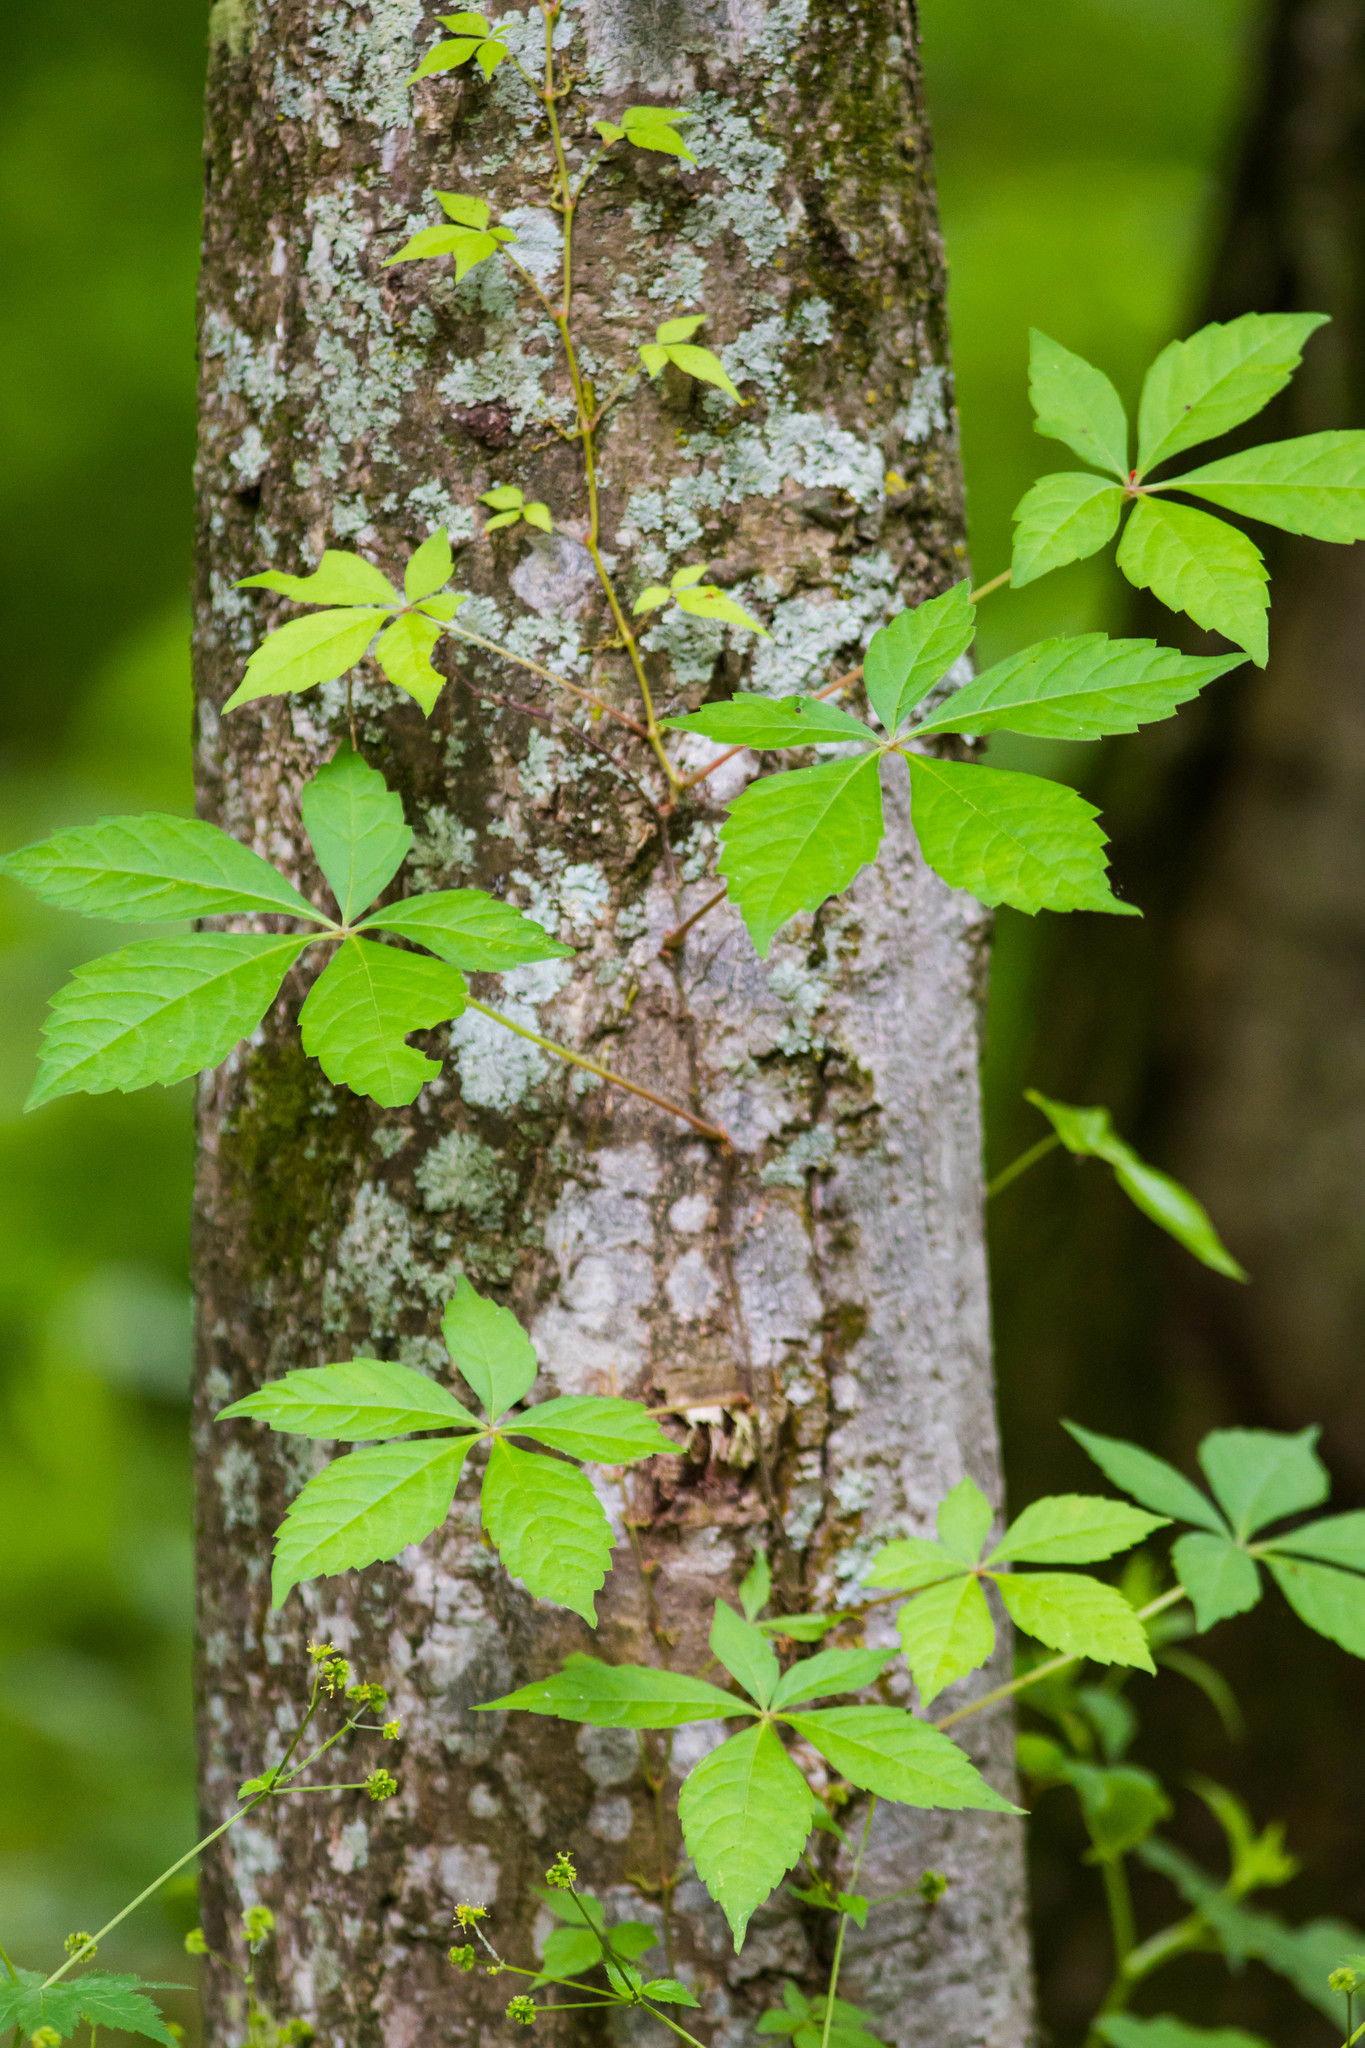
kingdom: Plantae
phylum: Tracheophyta
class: Magnoliopsida
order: Vitales
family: Vitaceae
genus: Parthenocissus
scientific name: Parthenocissus quinquefolia
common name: Virginia-creeper
